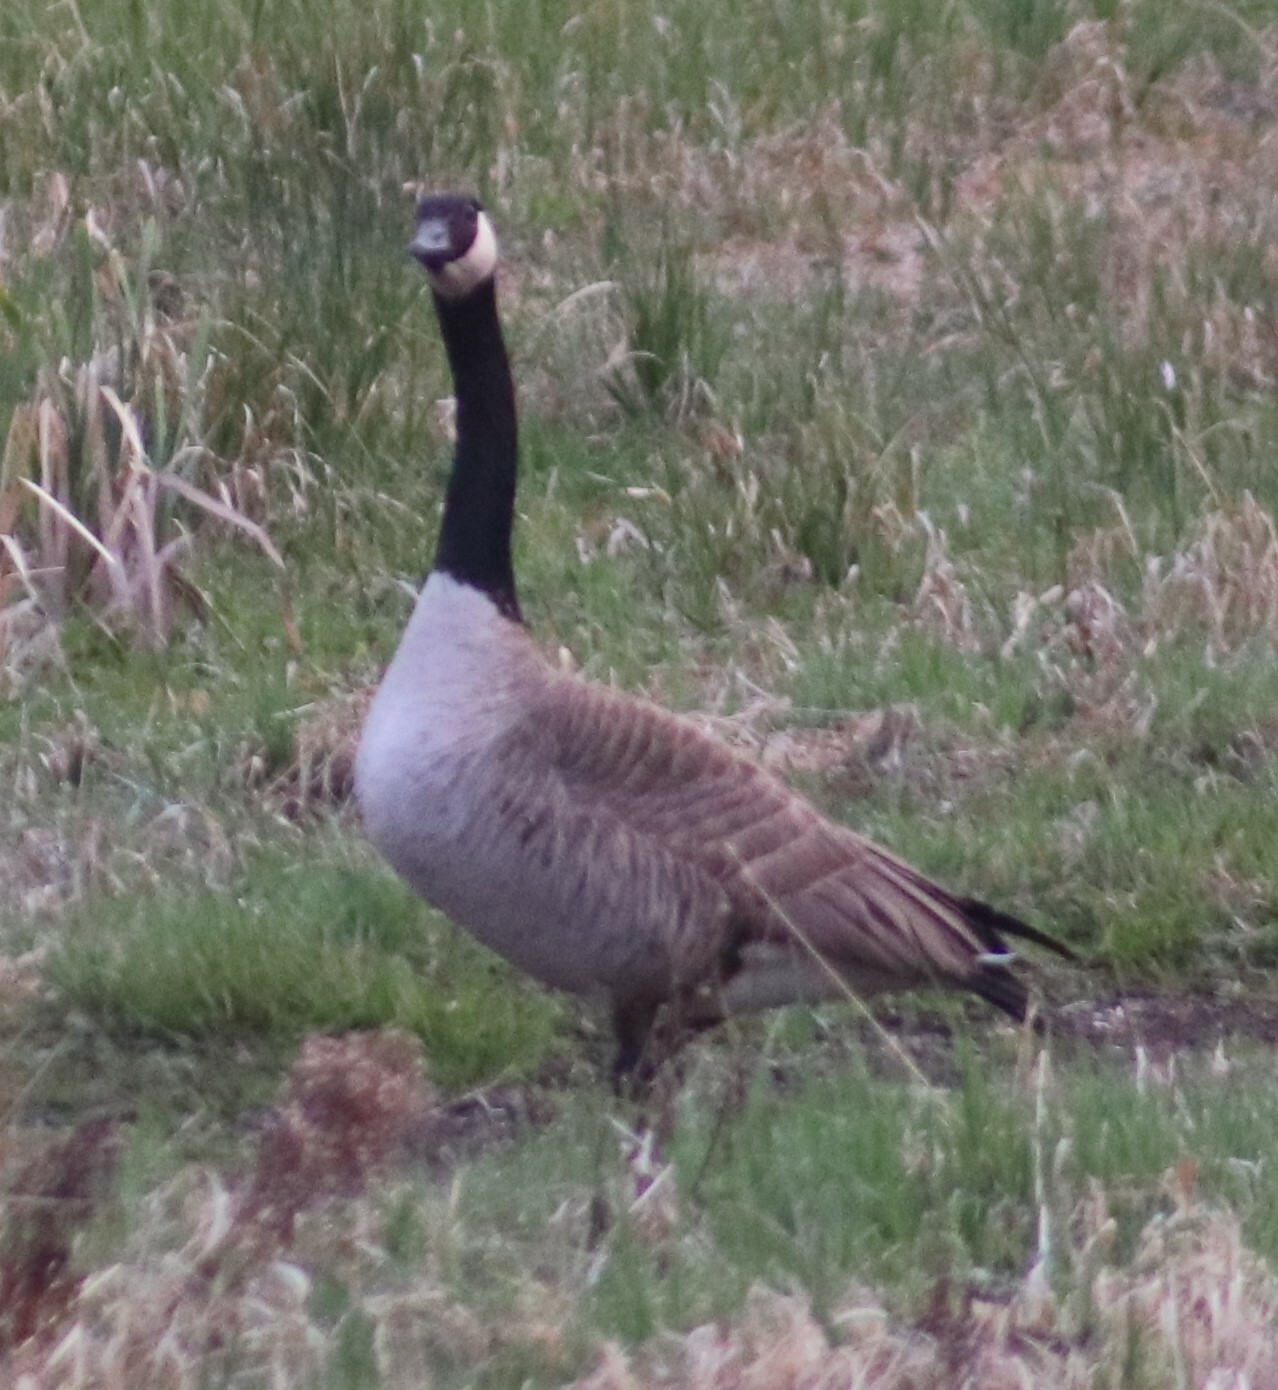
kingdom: Animalia
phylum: Chordata
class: Aves
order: Anseriformes
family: Anatidae
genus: Branta
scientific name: Branta canadensis
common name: Canada goose
